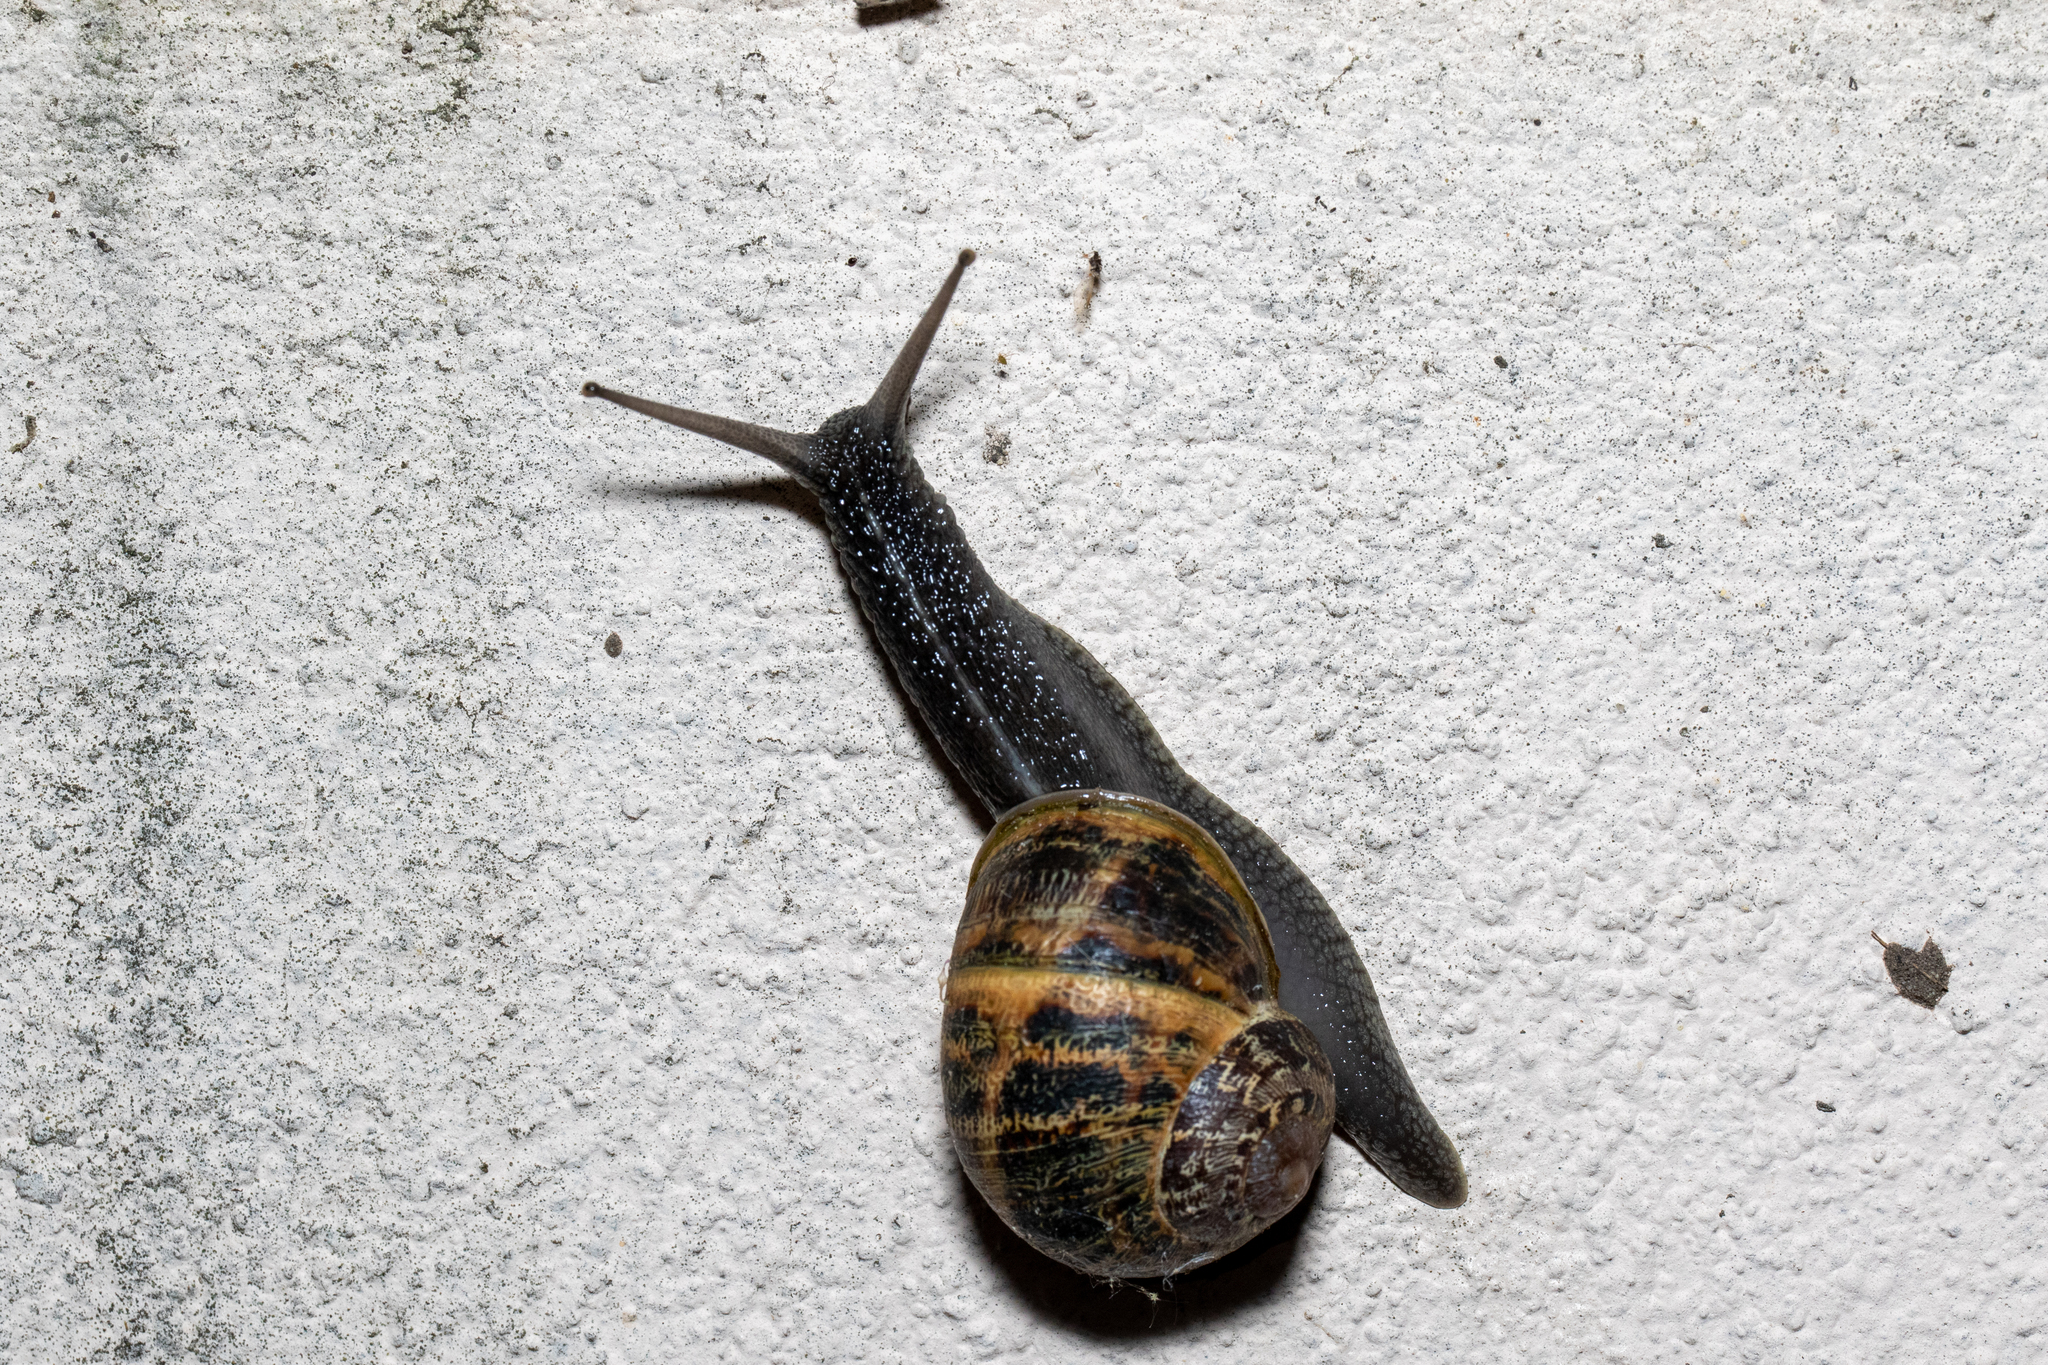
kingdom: Animalia
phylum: Mollusca
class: Gastropoda
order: Stylommatophora
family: Helicidae
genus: Cornu
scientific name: Cornu aspersum
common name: Brown garden snail
